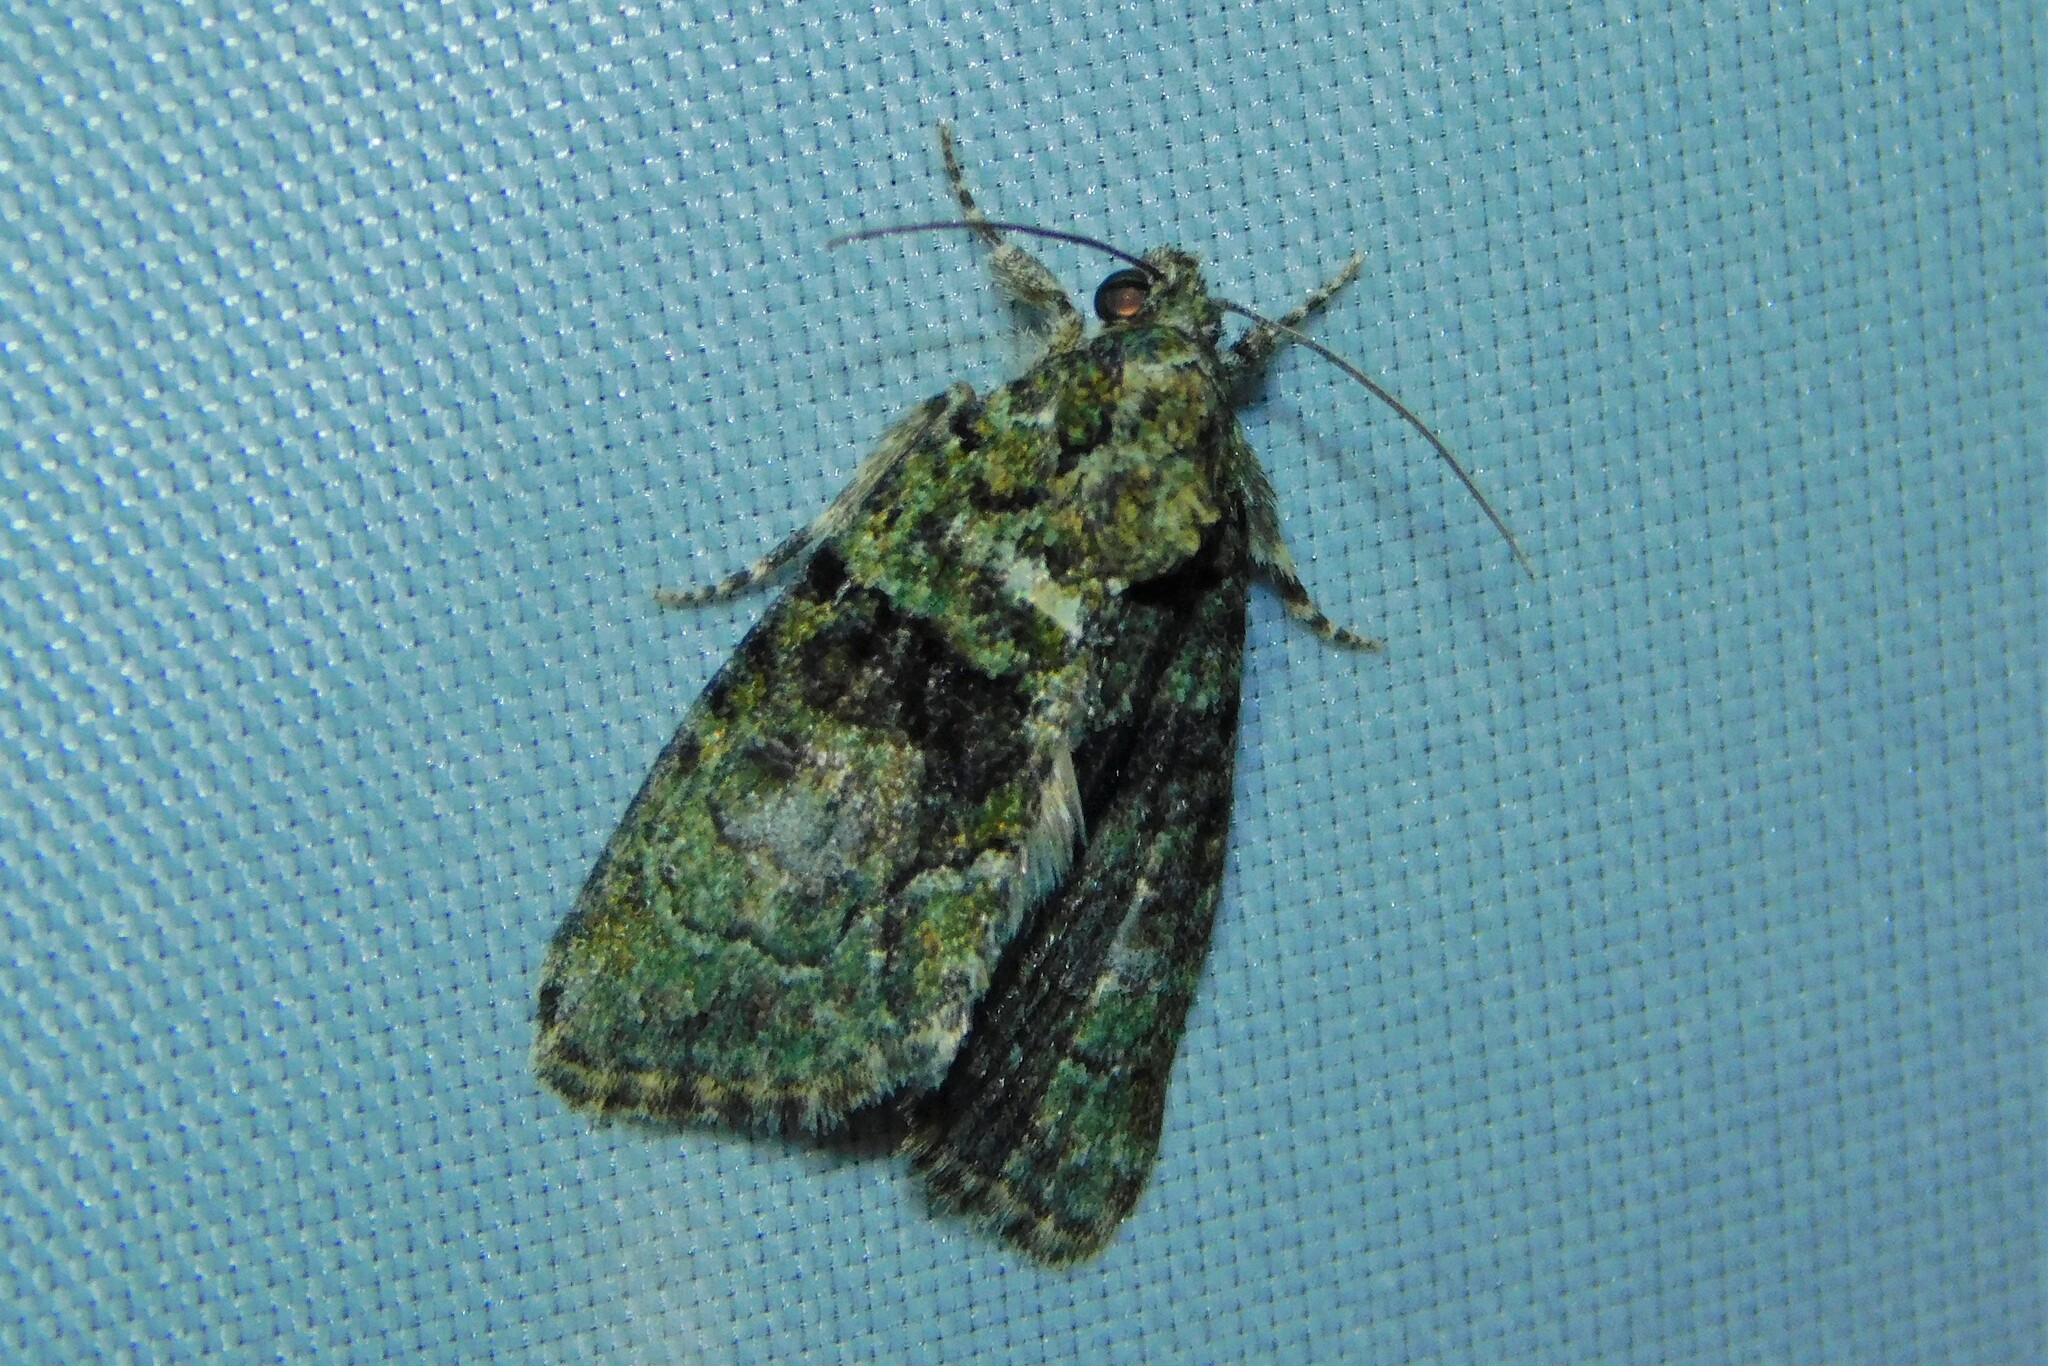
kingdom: Animalia
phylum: Arthropoda
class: Insecta
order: Lepidoptera
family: Noctuidae
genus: Cryphia
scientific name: Cryphia algae
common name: Tree-lichen beauty
